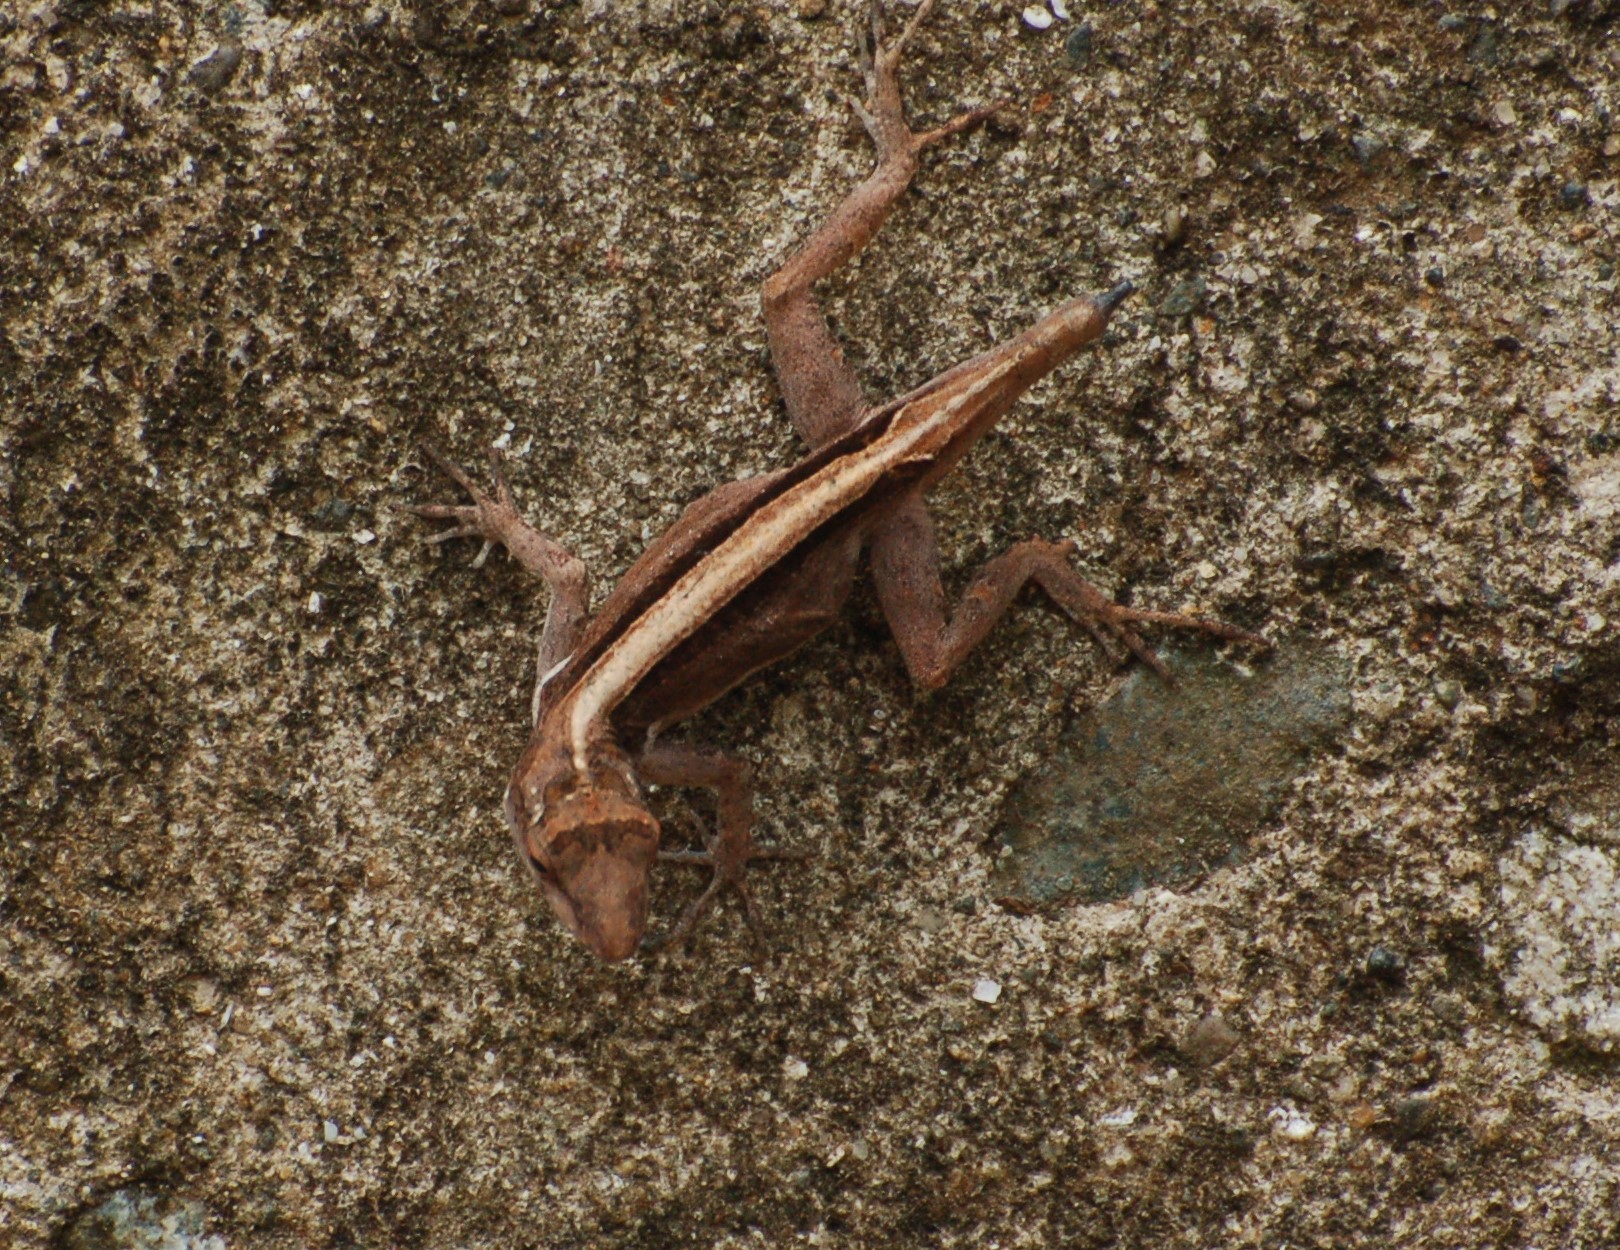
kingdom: Animalia
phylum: Chordata
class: Squamata
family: Dactyloidae
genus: Anolis
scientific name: Anolis cristatellus
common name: Crested anole
